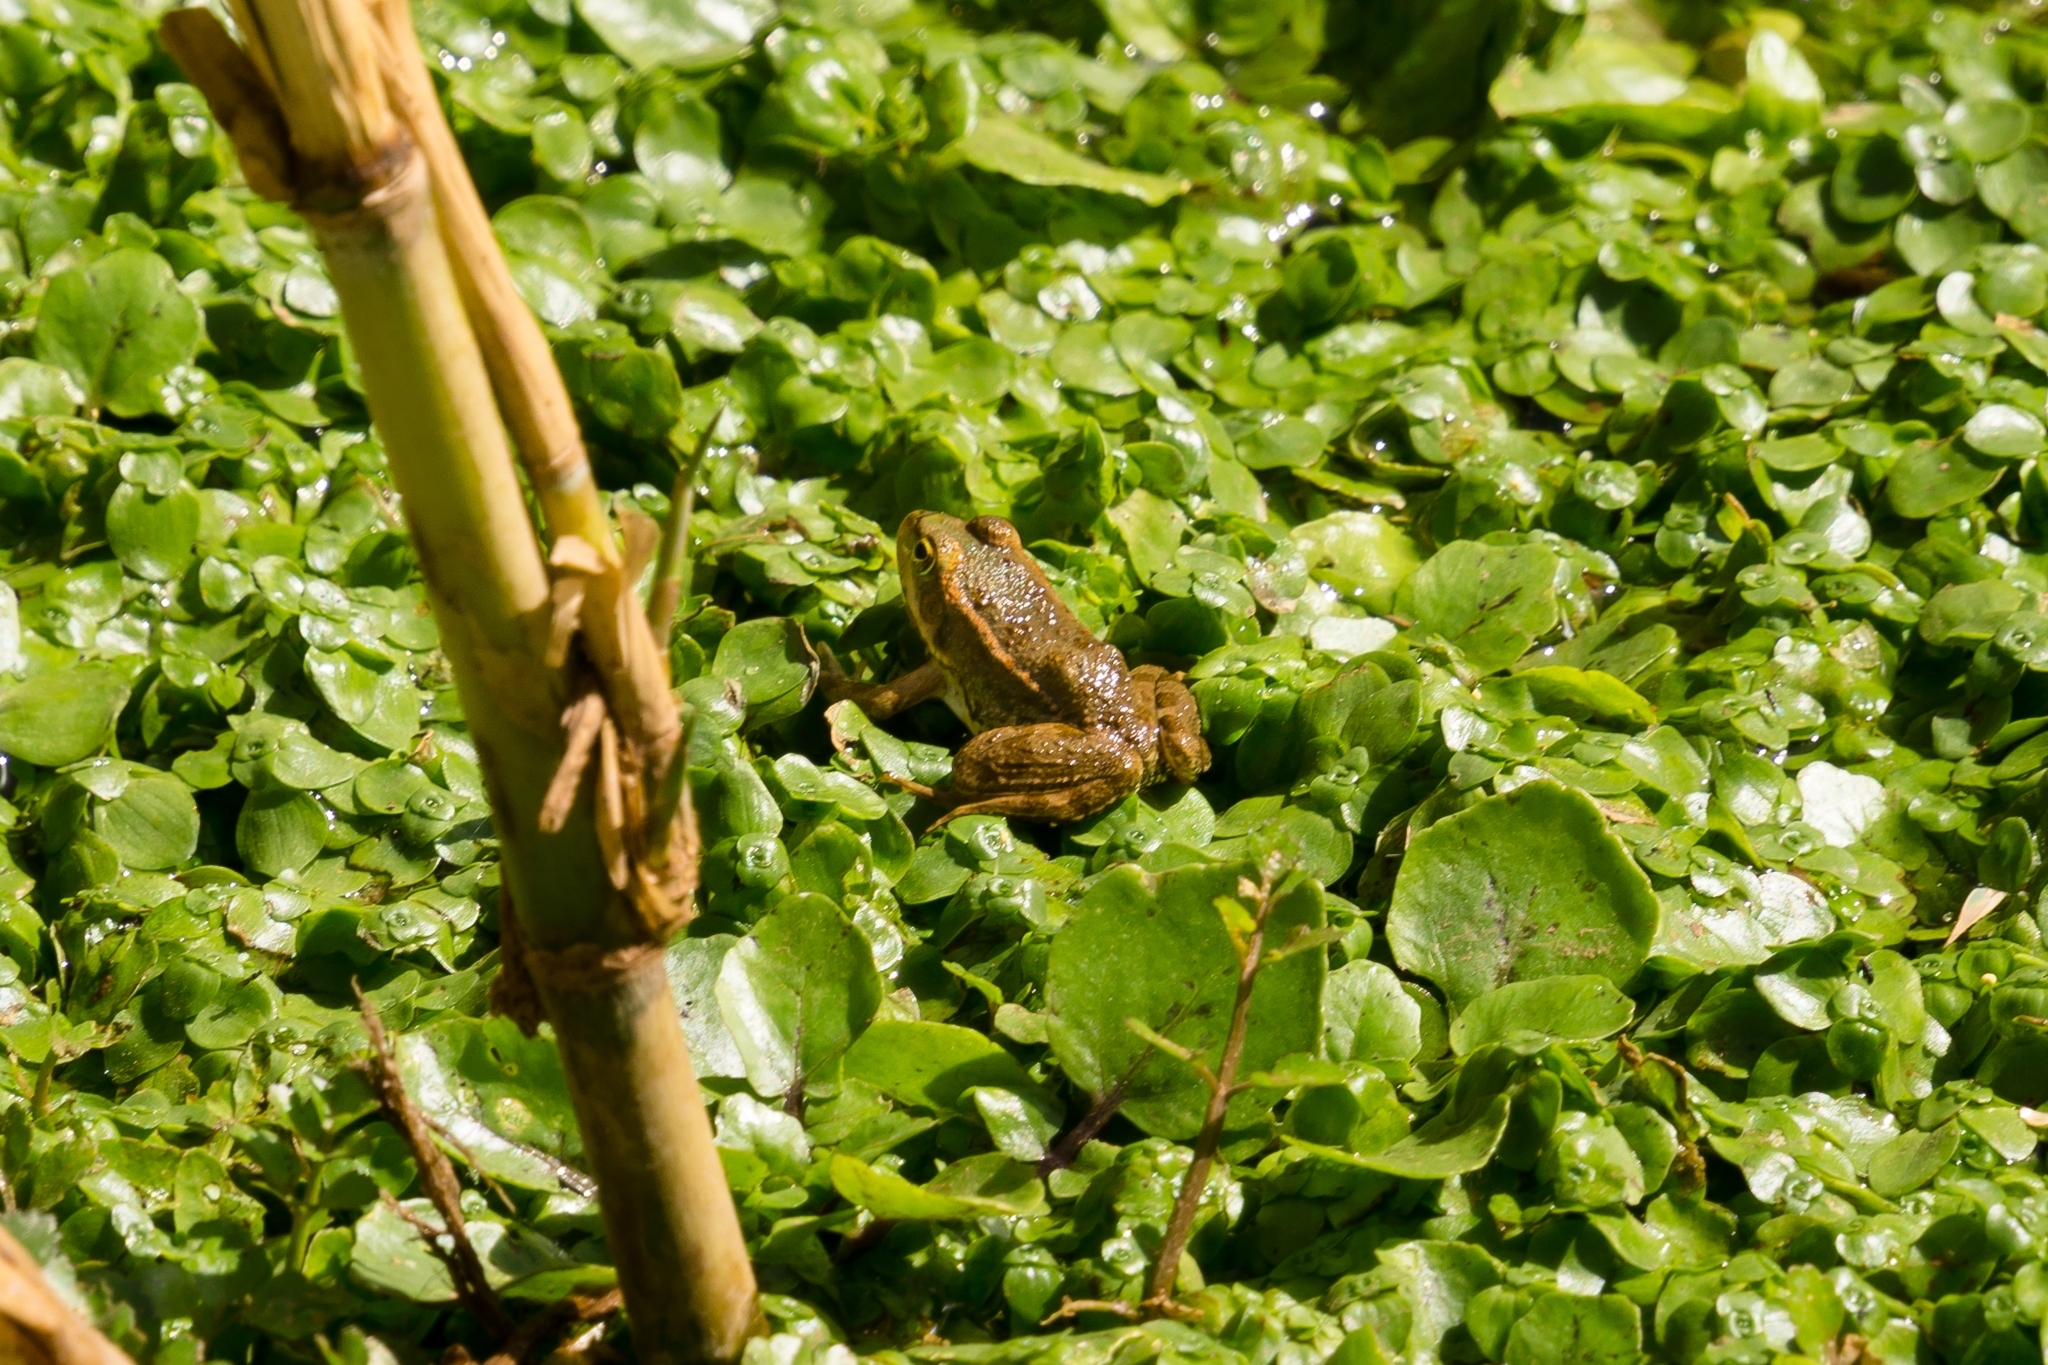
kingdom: Animalia
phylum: Chordata
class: Amphibia
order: Anura
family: Ranidae
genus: Pelophylax
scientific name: Pelophylax saharicus
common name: Sahara frog
